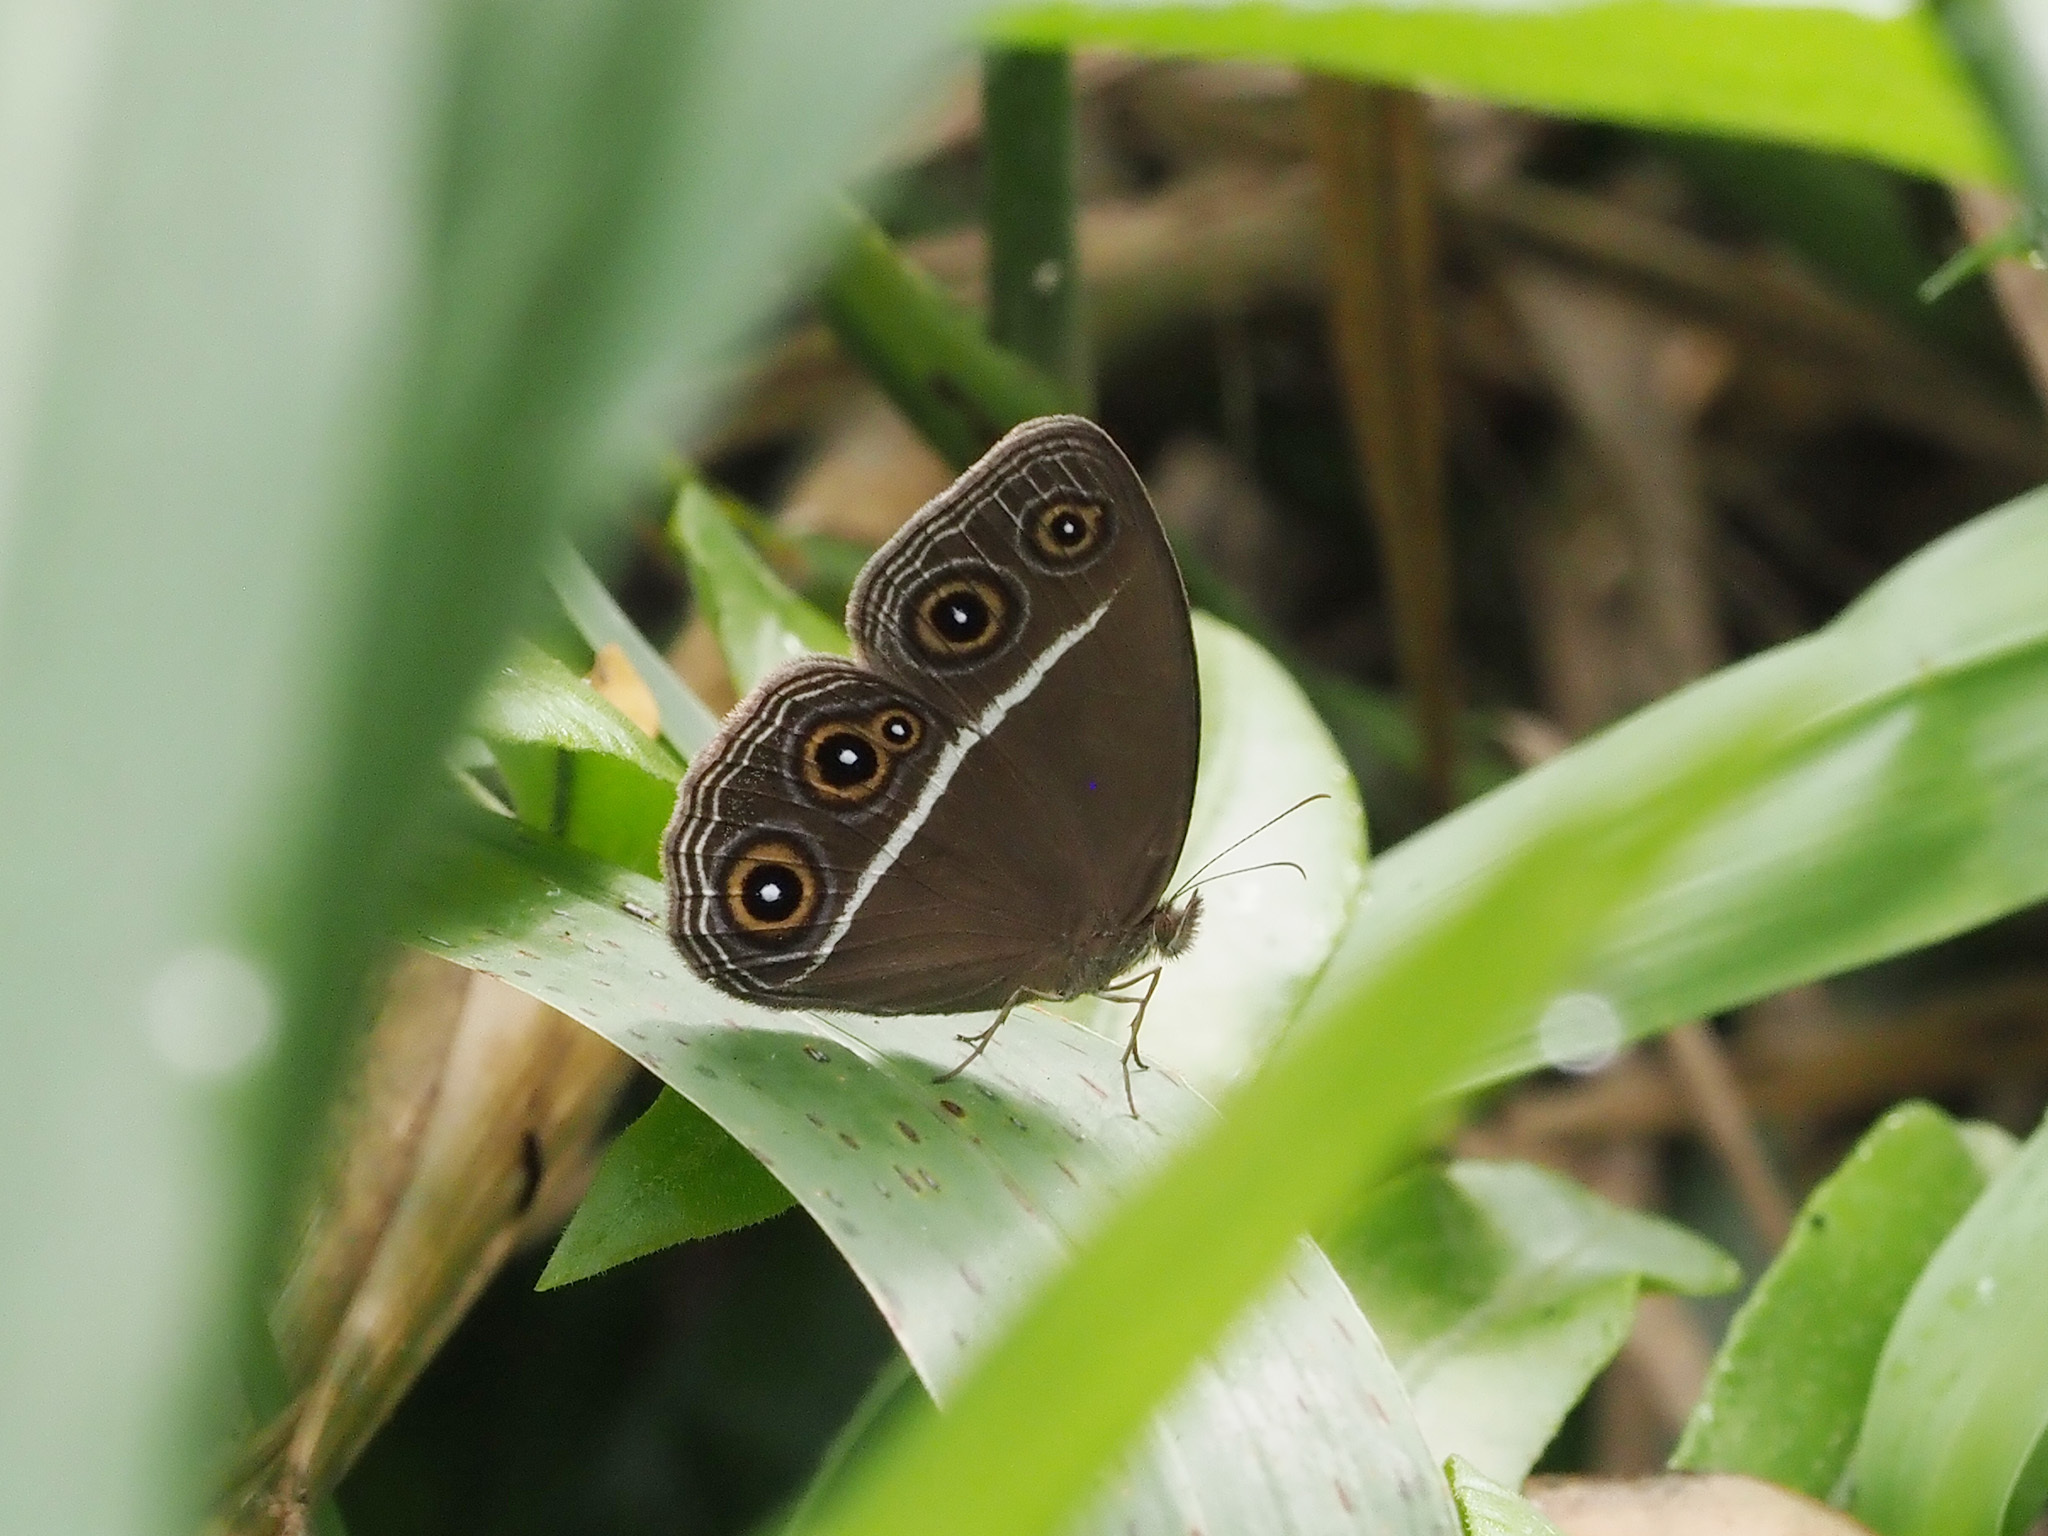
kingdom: Animalia
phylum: Arthropoda
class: Insecta
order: Lepidoptera
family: Nymphalidae
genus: Orsotriaena
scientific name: Orsotriaena medus
